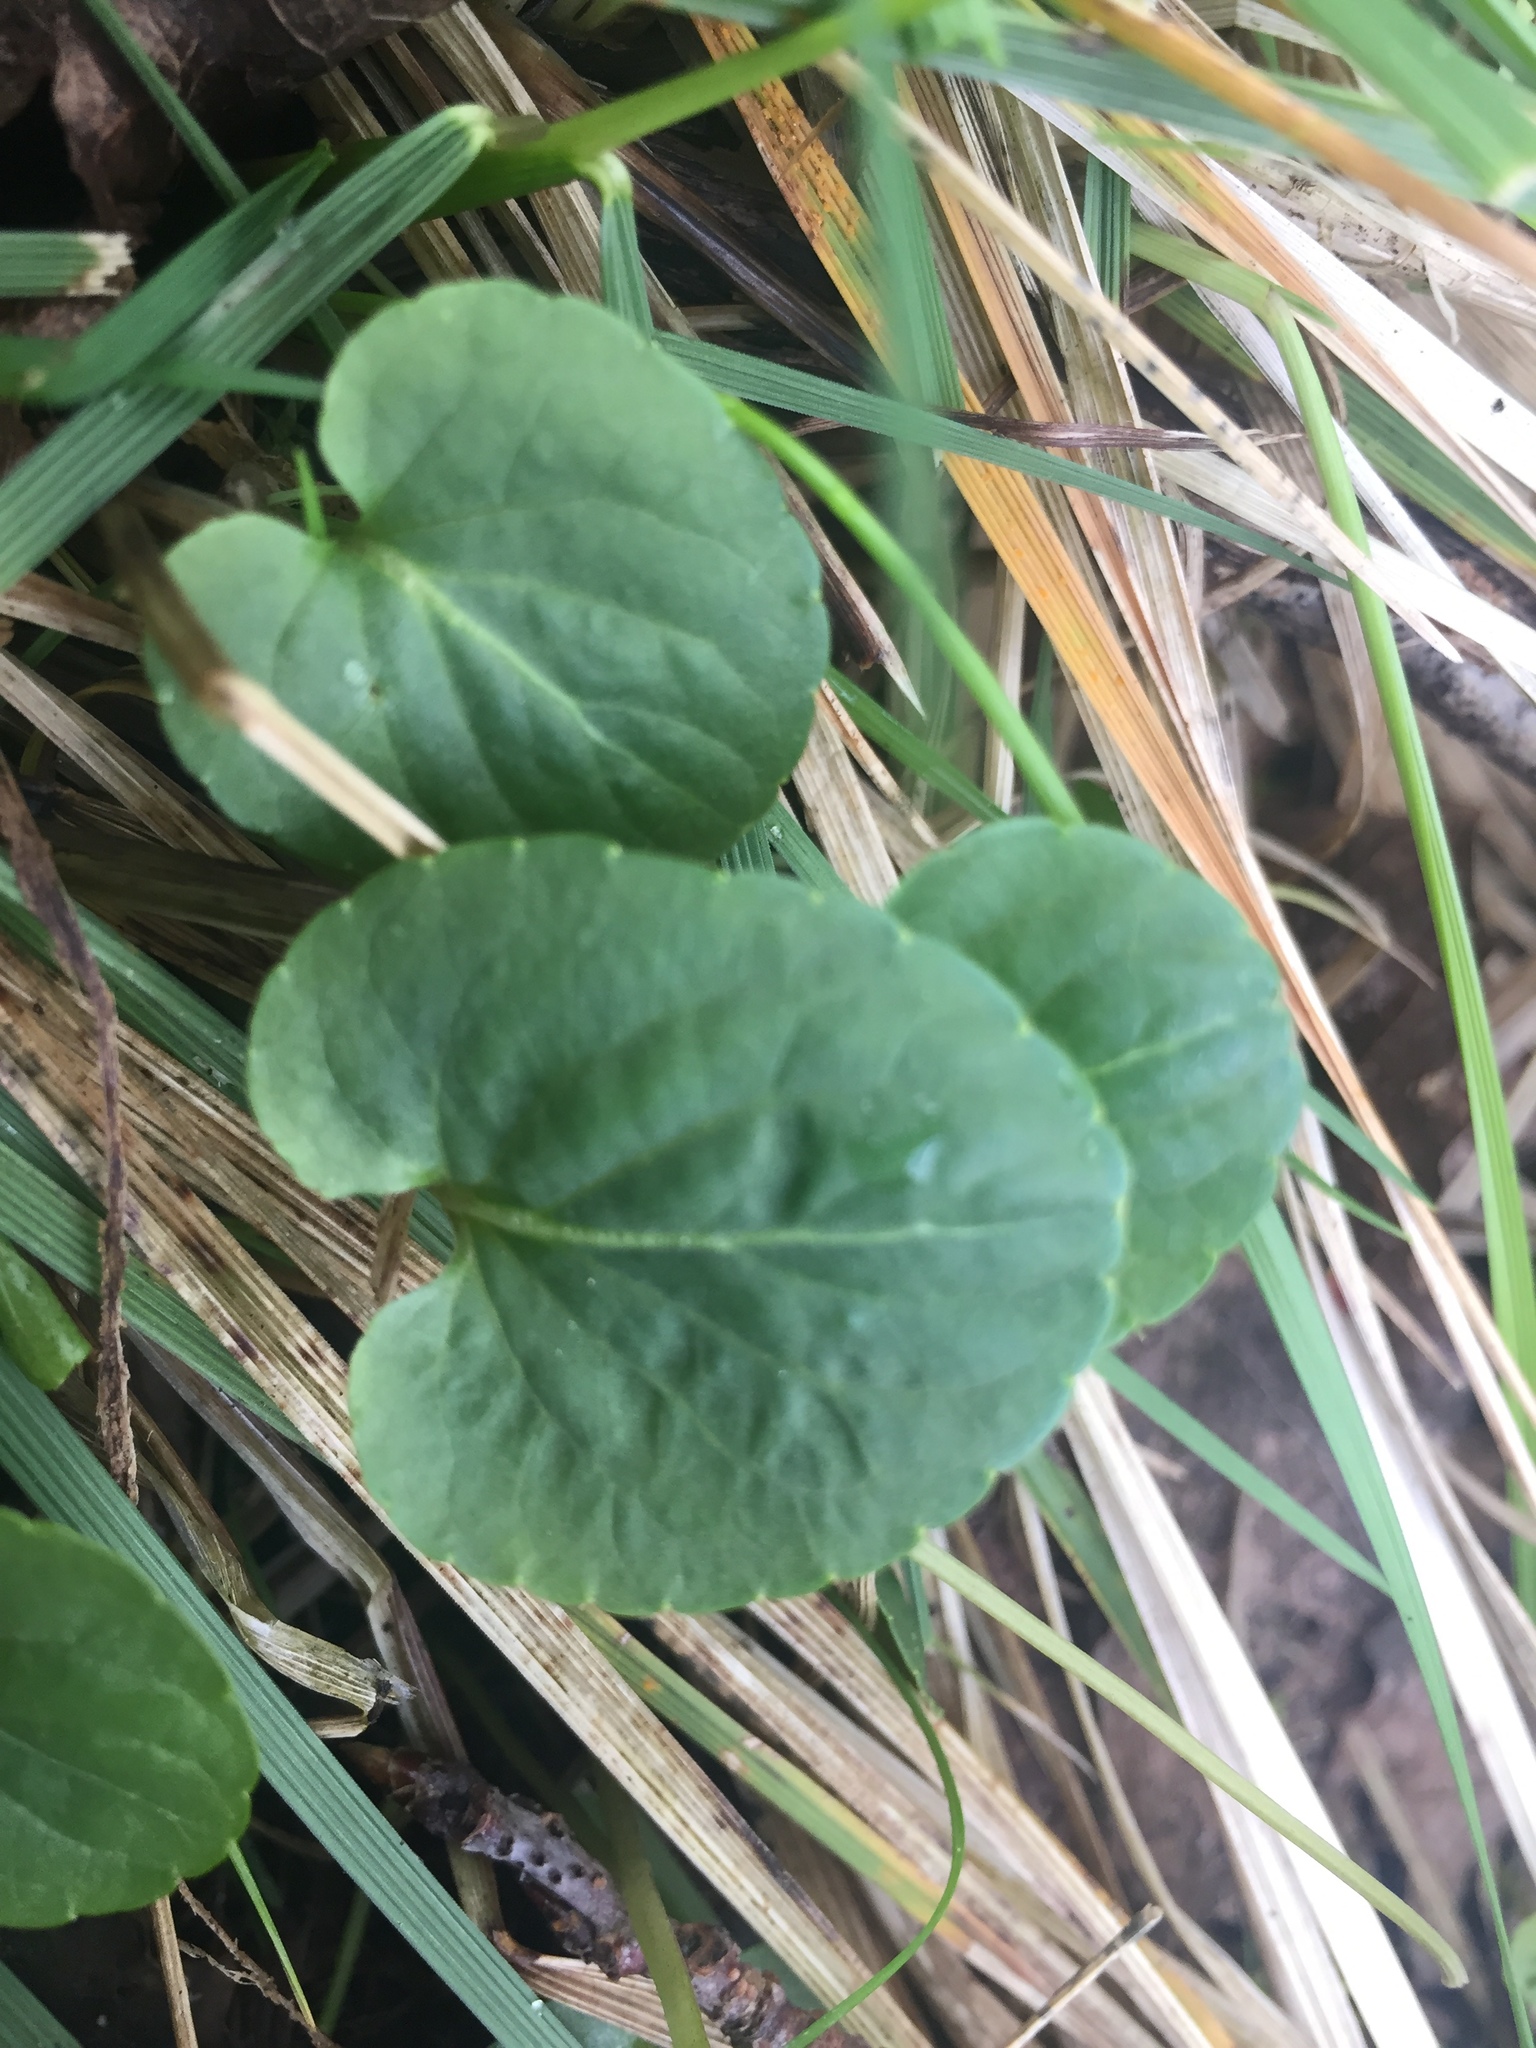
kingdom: Plantae
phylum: Tracheophyta
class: Magnoliopsida
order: Malpighiales
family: Violaceae
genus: Viola
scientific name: Viola palustris
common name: Marsh violet
